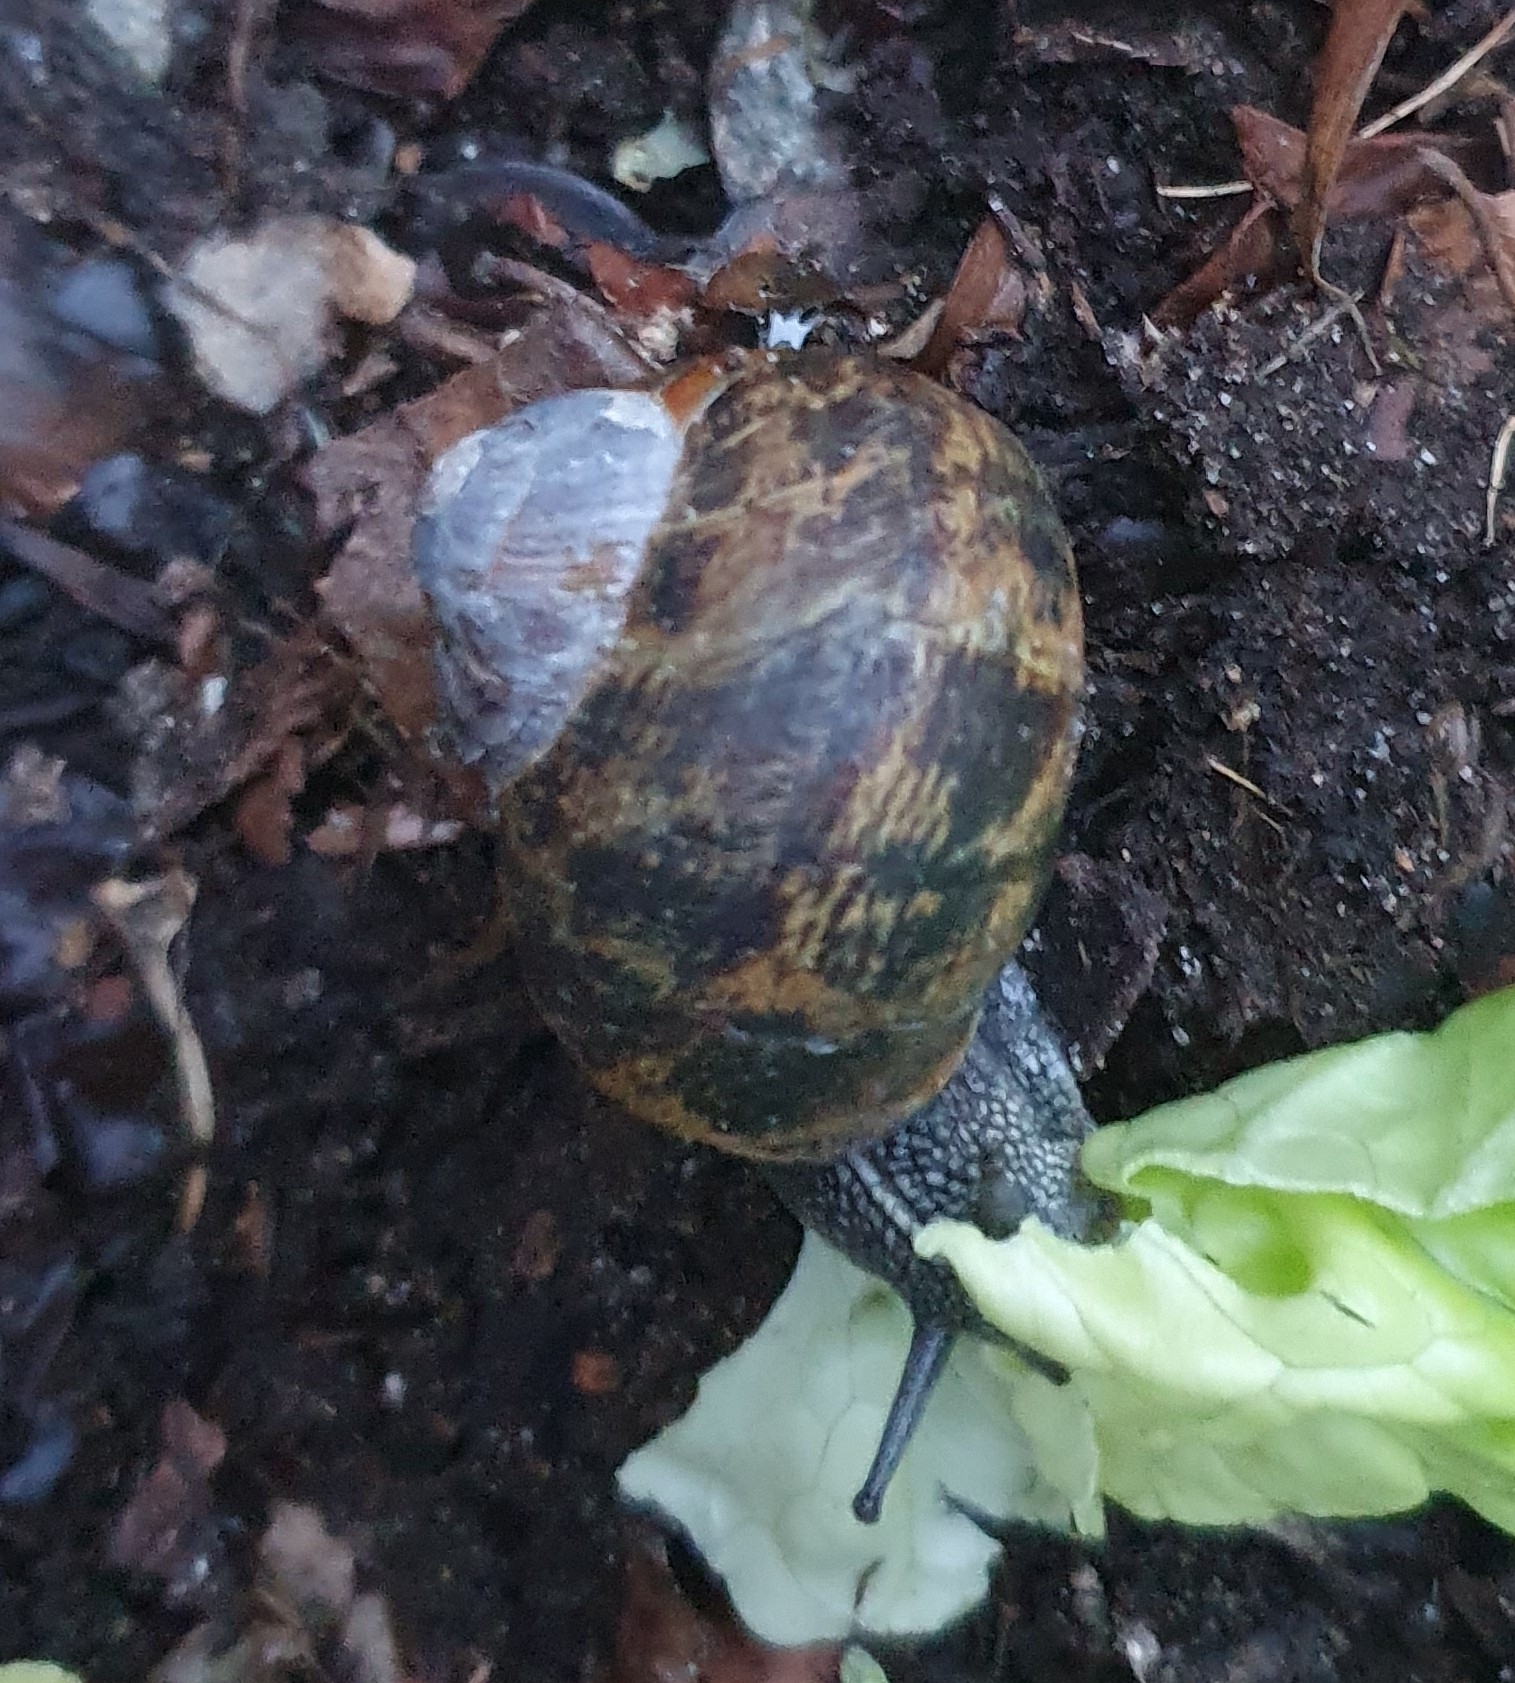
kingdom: Animalia
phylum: Mollusca
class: Gastropoda
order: Stylommatophora
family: Helicidae
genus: Cornu
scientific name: Cornu aspersum
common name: Brown garden snail
